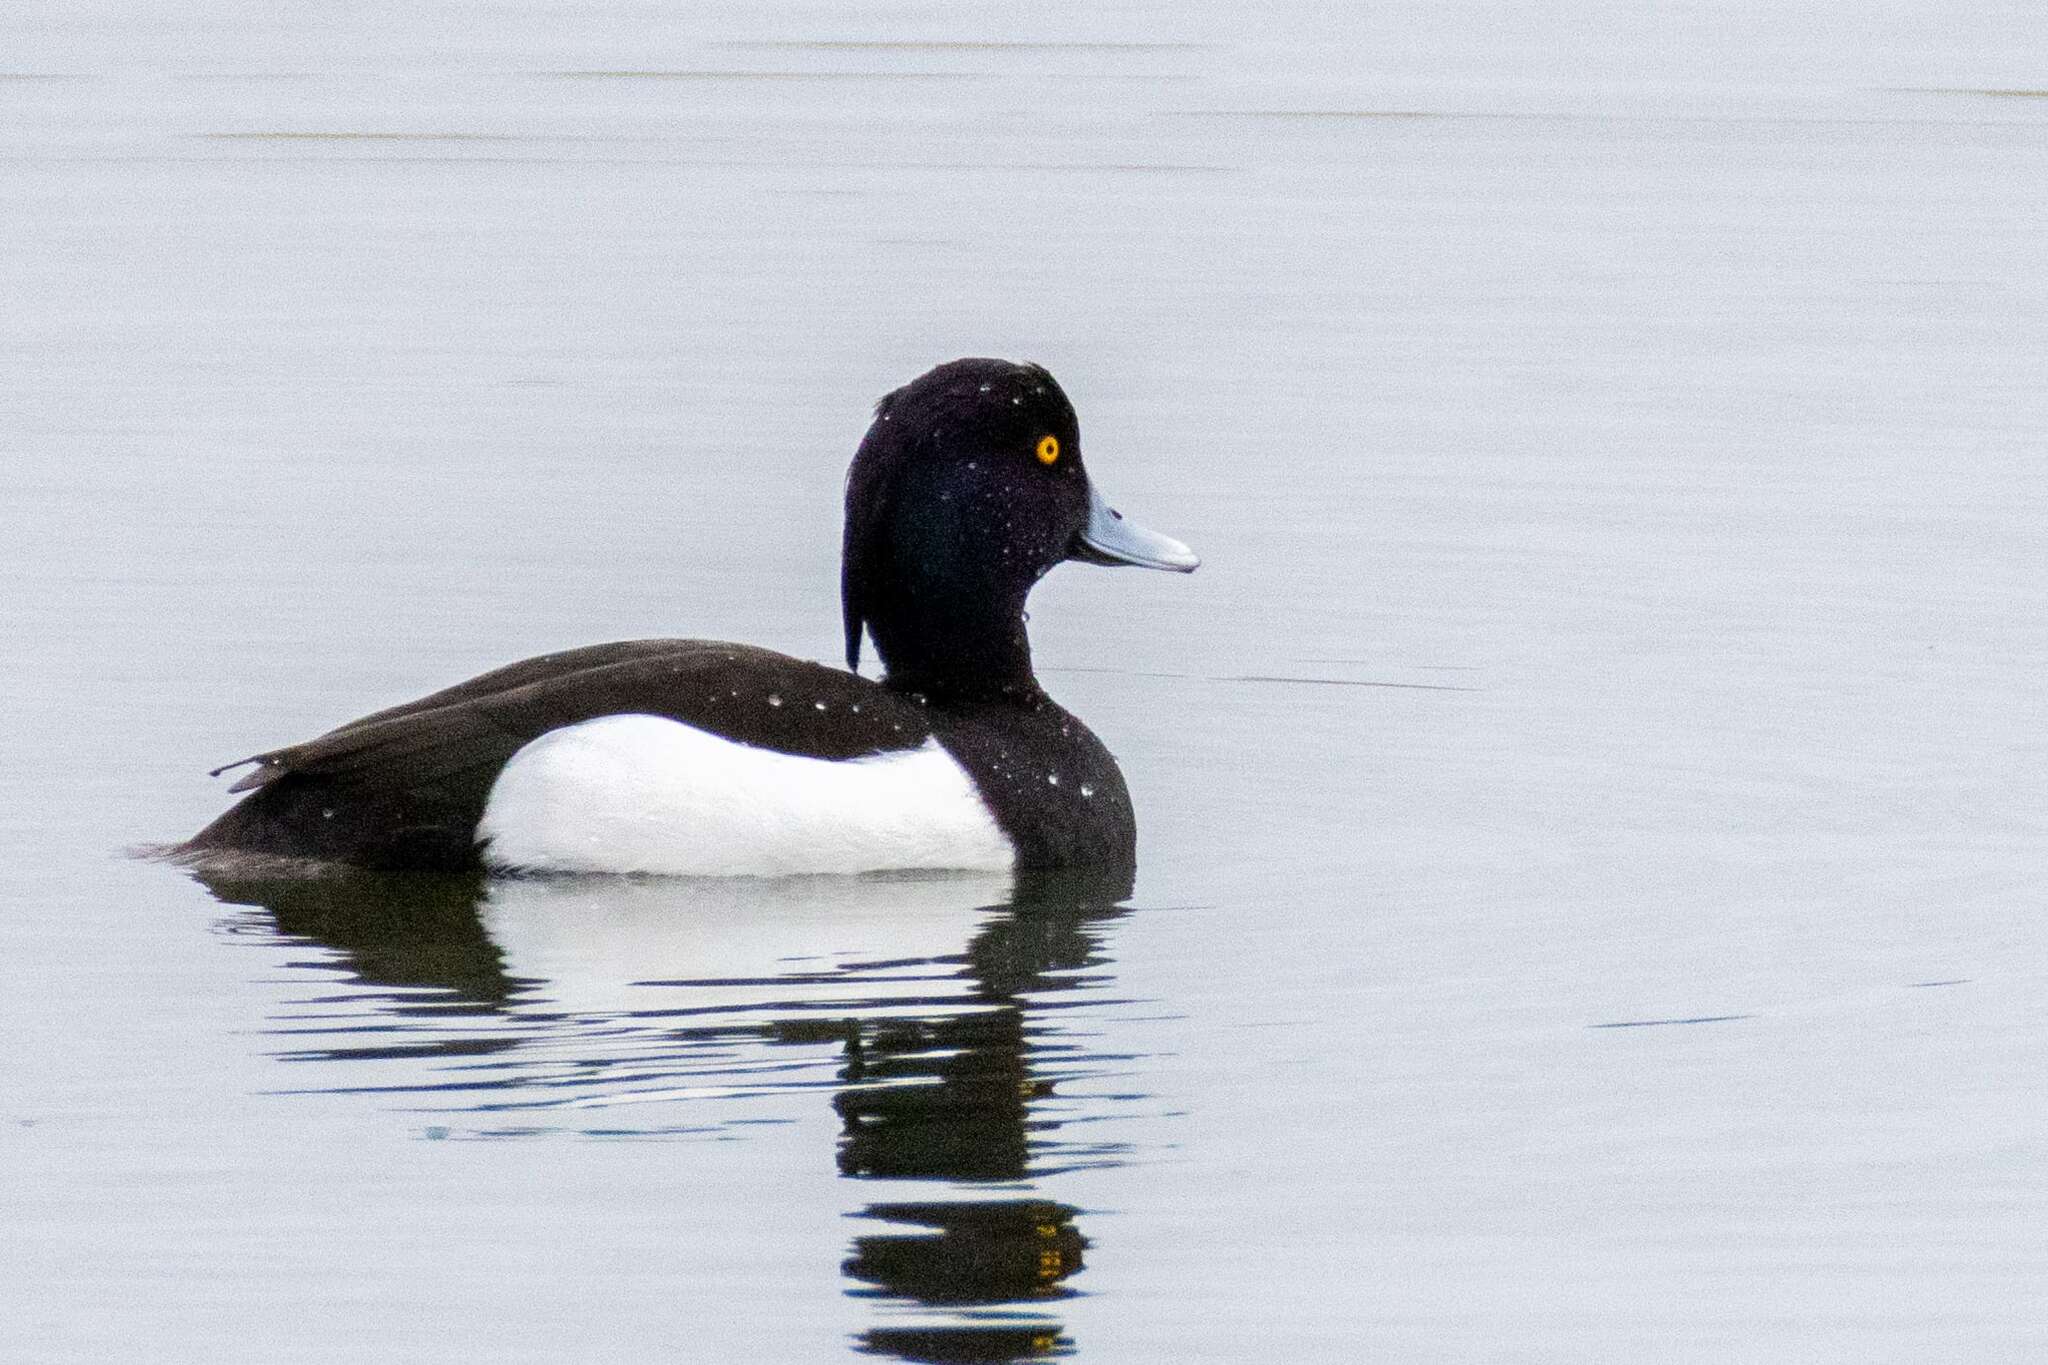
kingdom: Animalia
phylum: Chordata
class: Aves
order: Anseriformes
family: Anatidae
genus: Aythya
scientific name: Aythya fuligula
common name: Tufted duck
